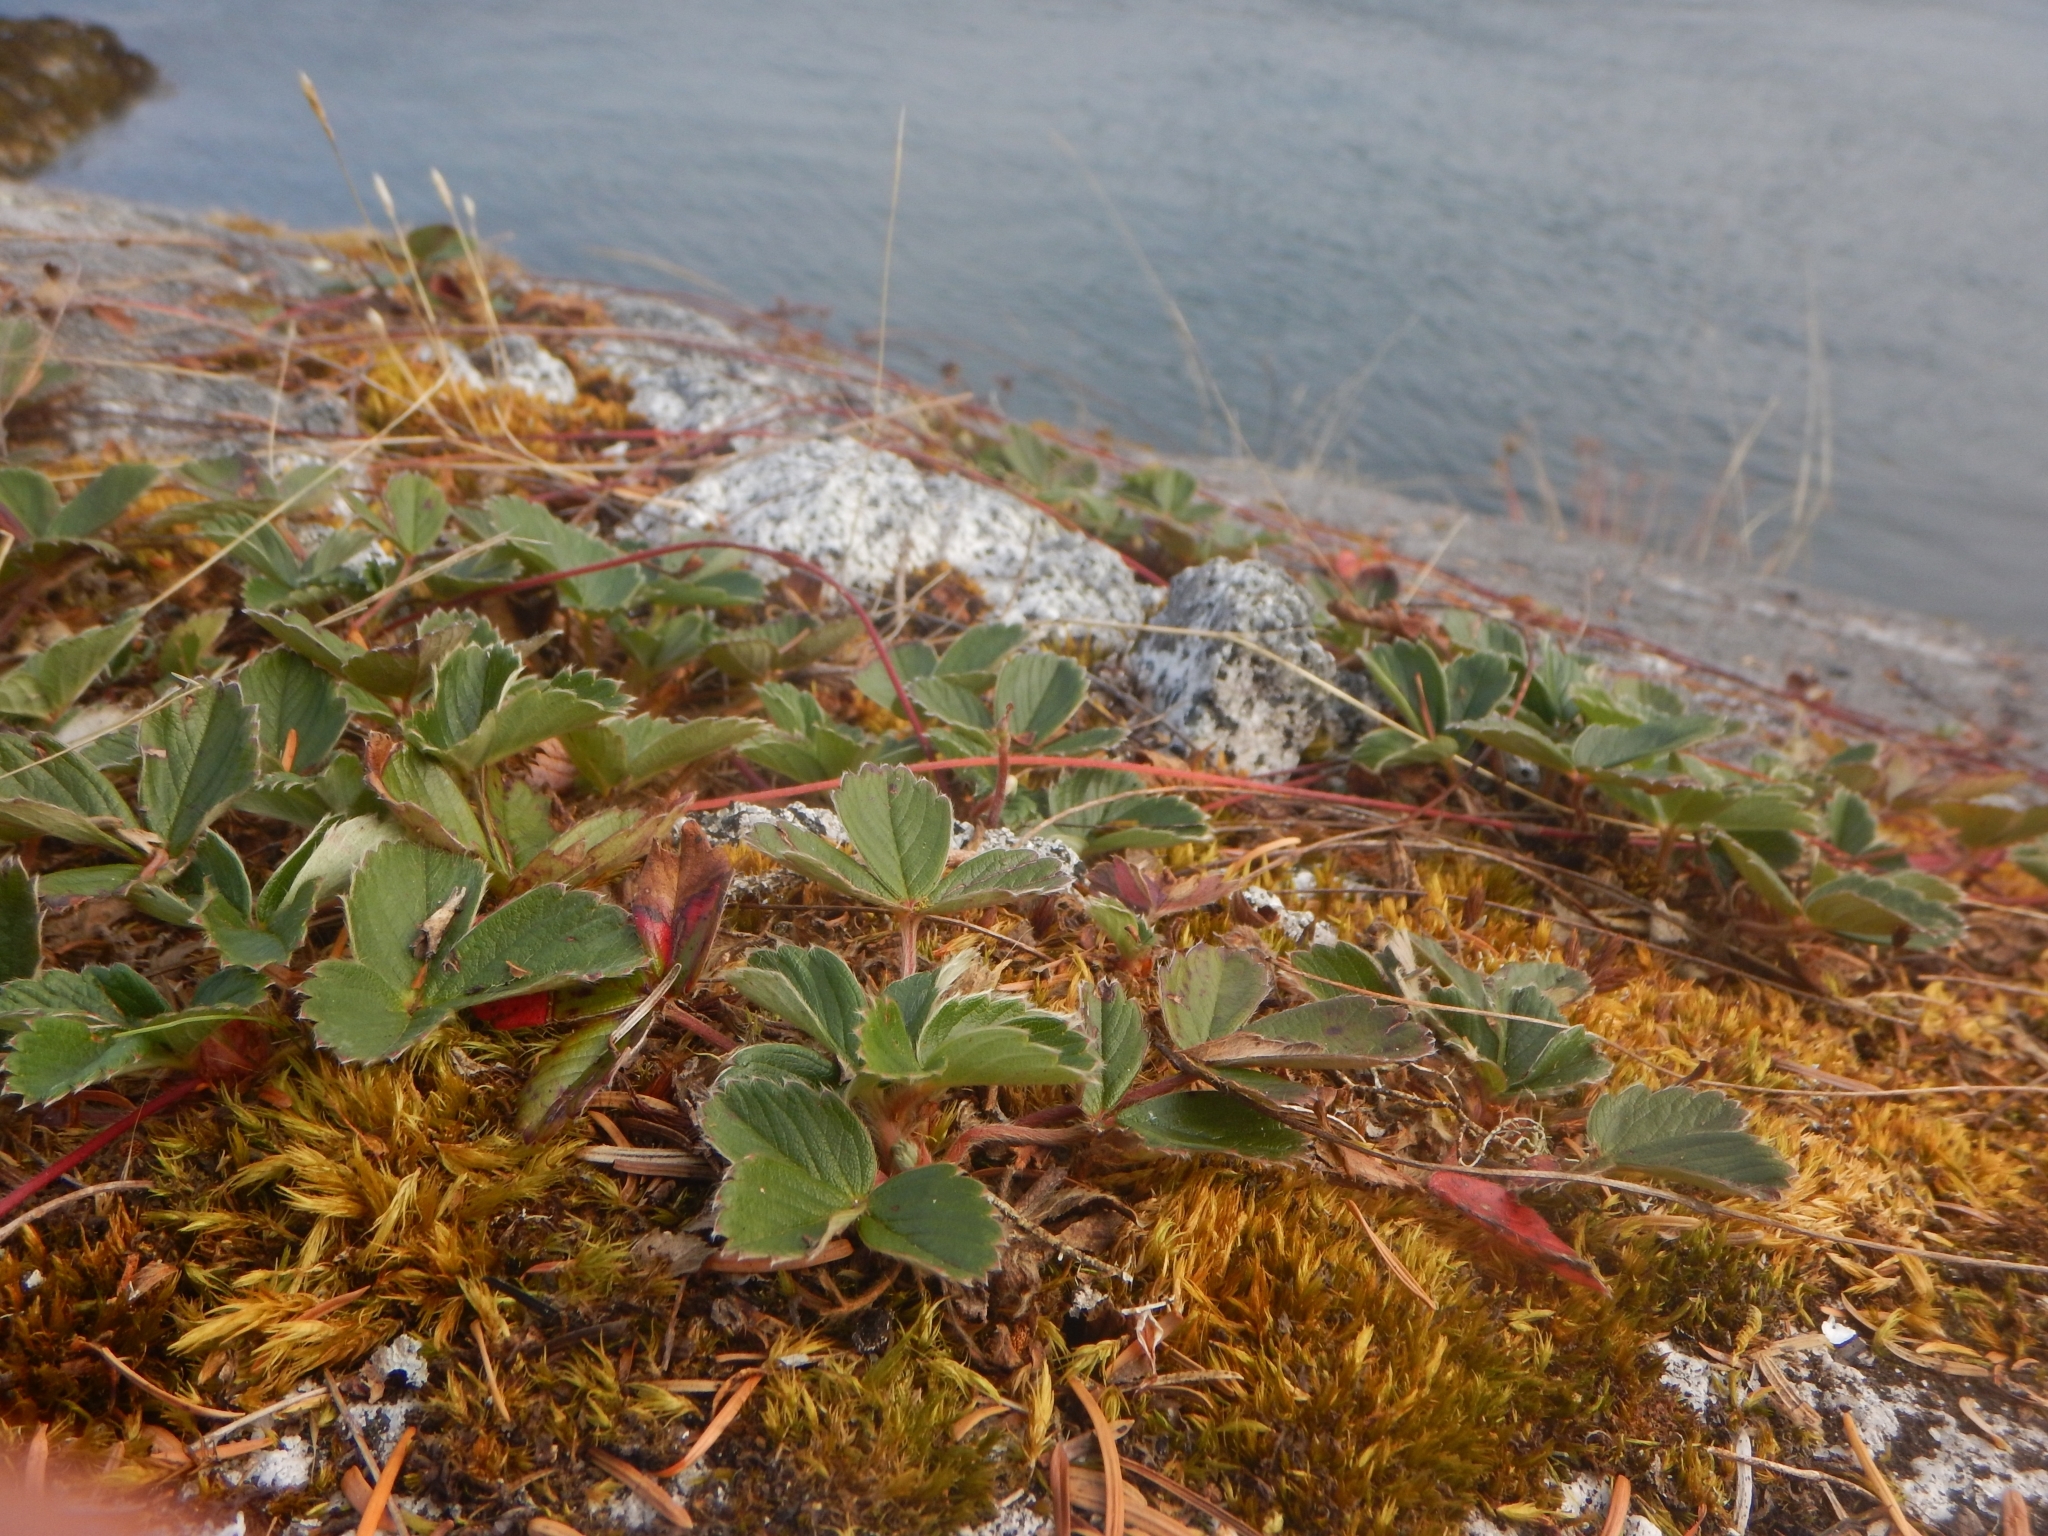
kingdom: Plantae
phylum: Tracheophyta
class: Magnoliopsida
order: Rosales
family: Rosaceae
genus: Fragaria
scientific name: Fragaria chiloensis
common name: Beach strawberry
